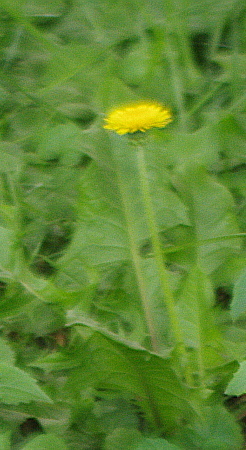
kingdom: Plantae
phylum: Tracheophyta
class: Magnoliopsida
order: Asterales
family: Asteraceae
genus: Taraxacum
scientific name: Taraxacum officinale
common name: Common dandelion
